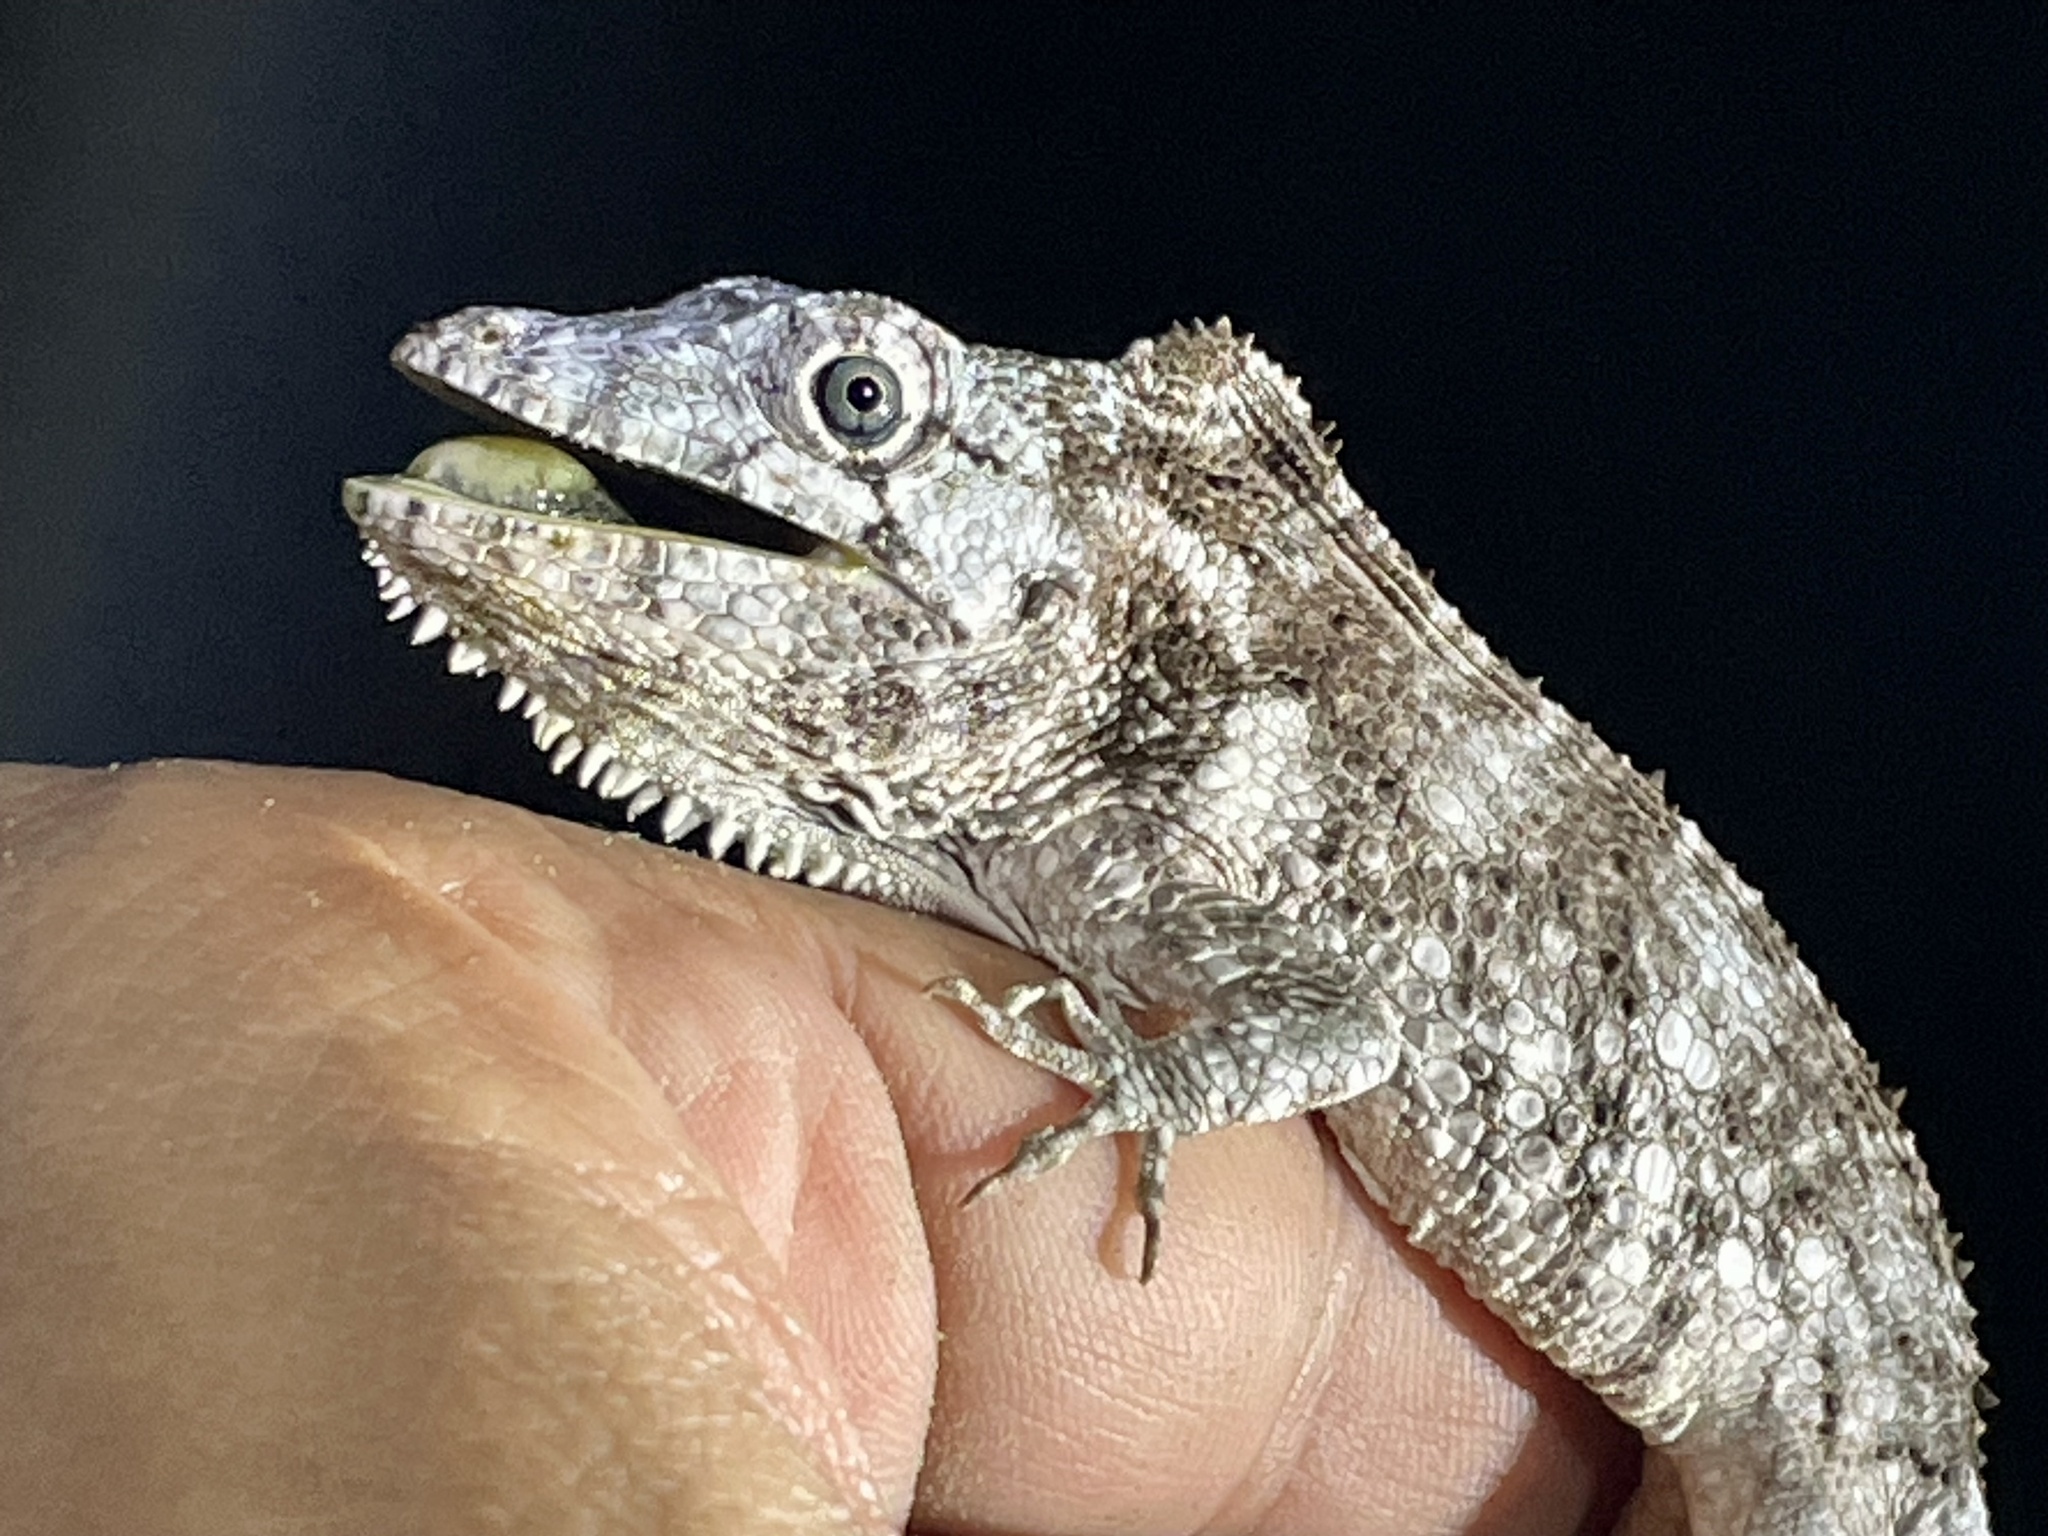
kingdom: Animalia
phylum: Chordata
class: Squamata
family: Dactyloidae
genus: Anolis
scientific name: Anolis barbatus
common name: Western bearded anole
